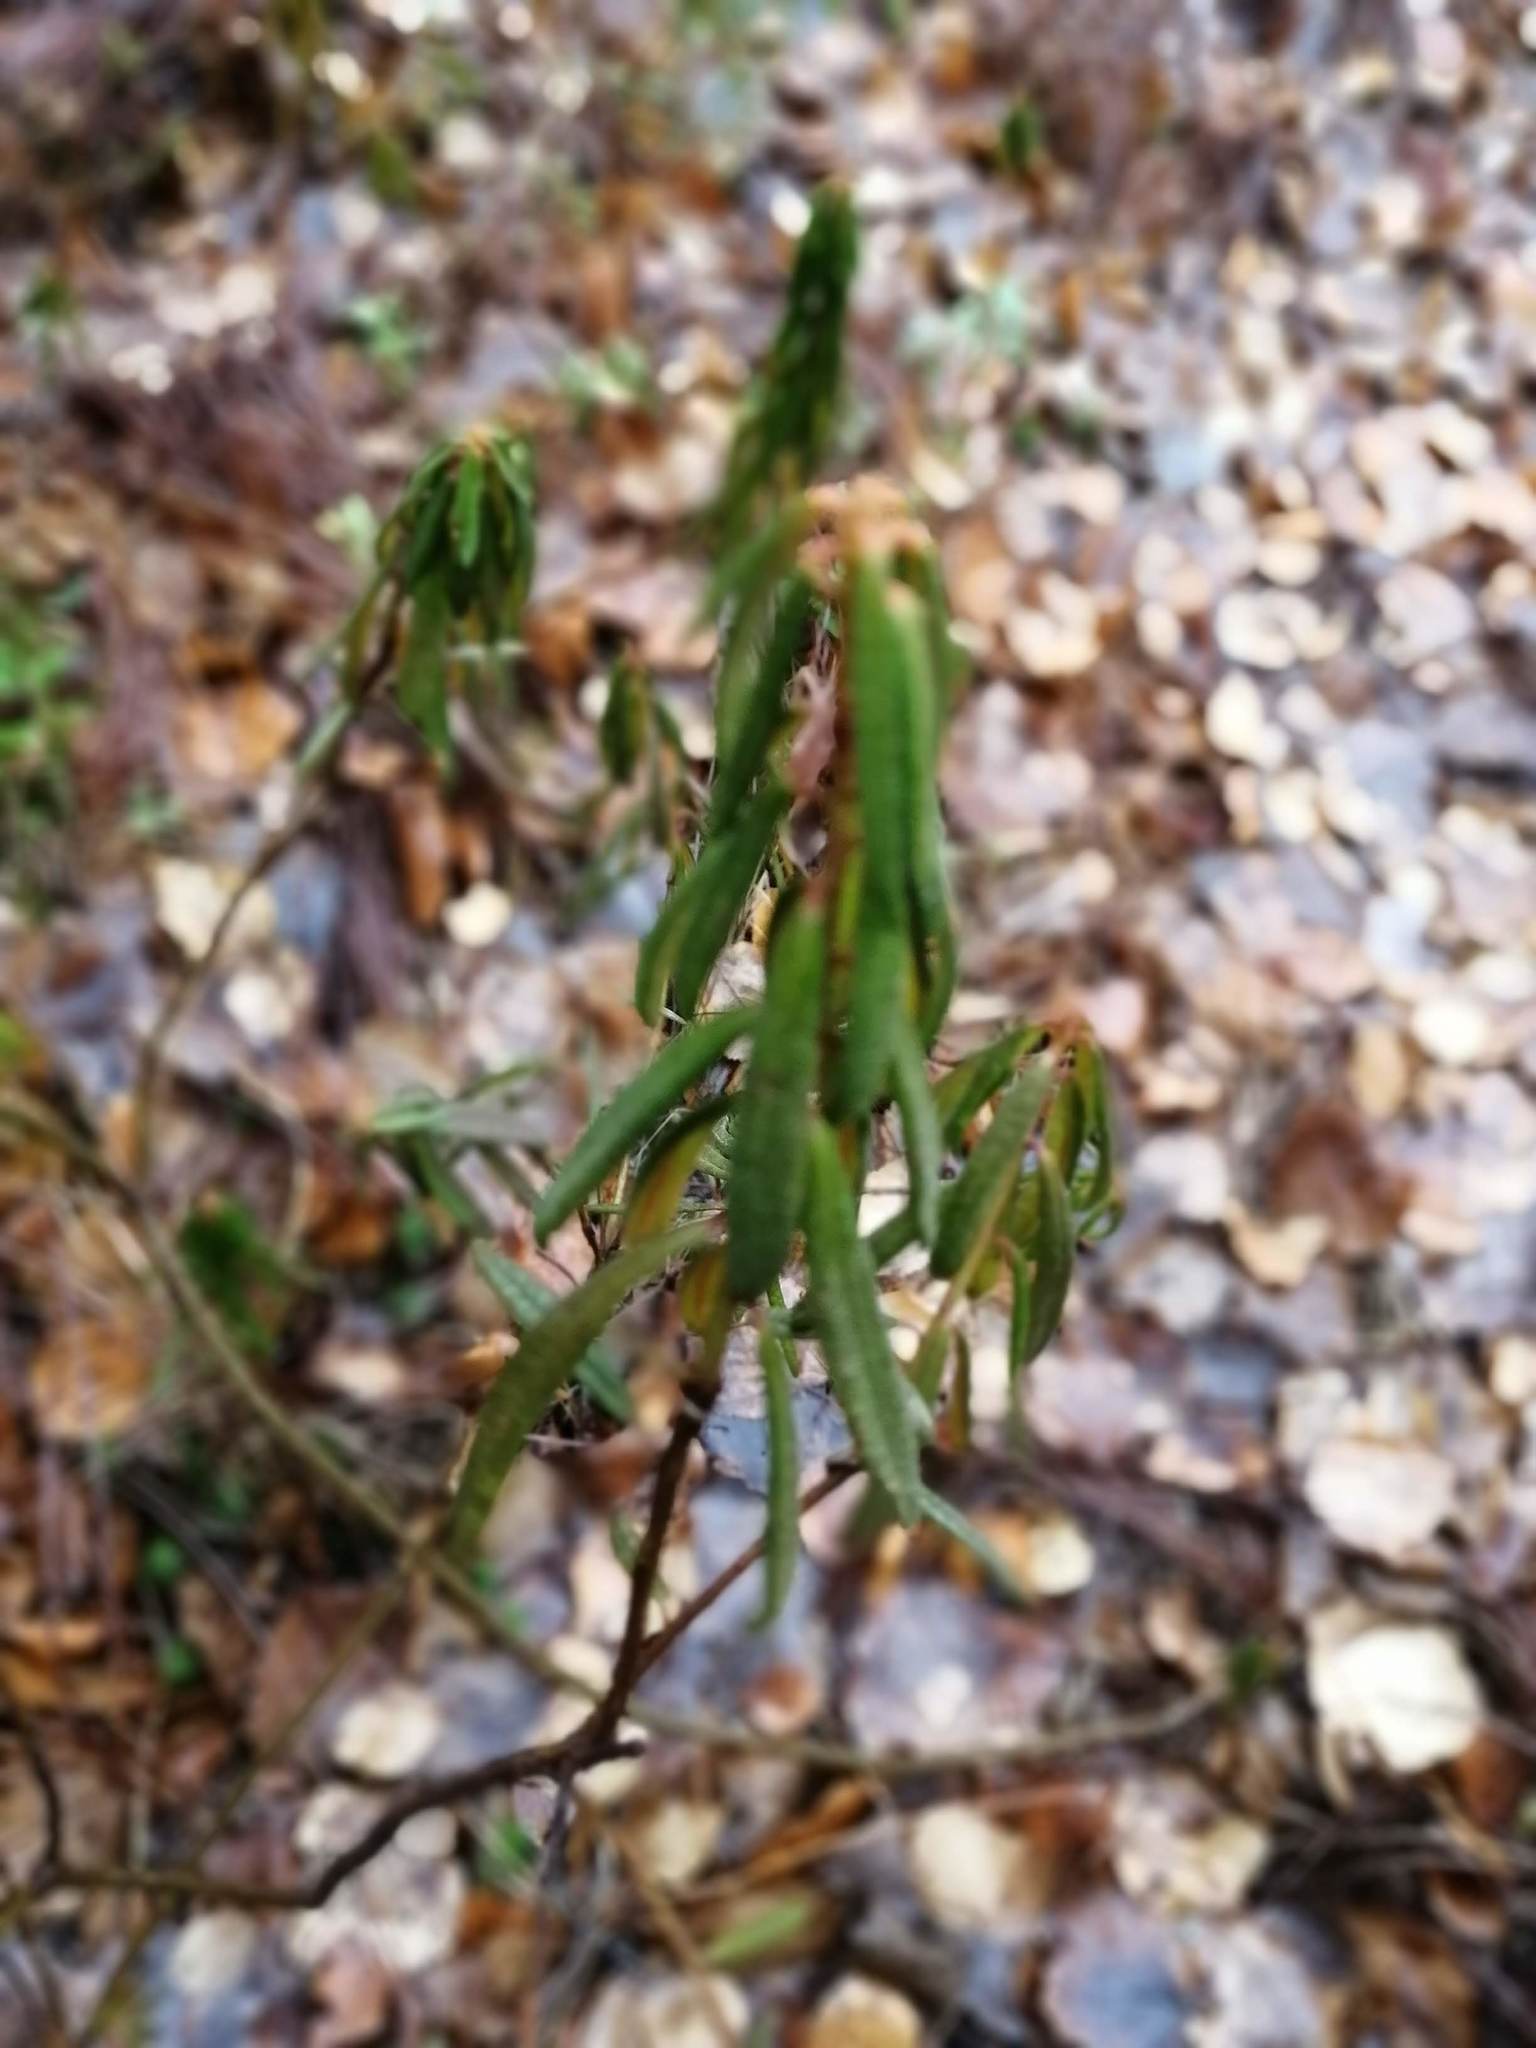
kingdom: Plantae
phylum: Tracheophyta
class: Magnoliopsida
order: Ericales
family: Ericaceae
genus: Rhododendron
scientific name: Rhododendron tomentosum
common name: Marsh labrador tea
